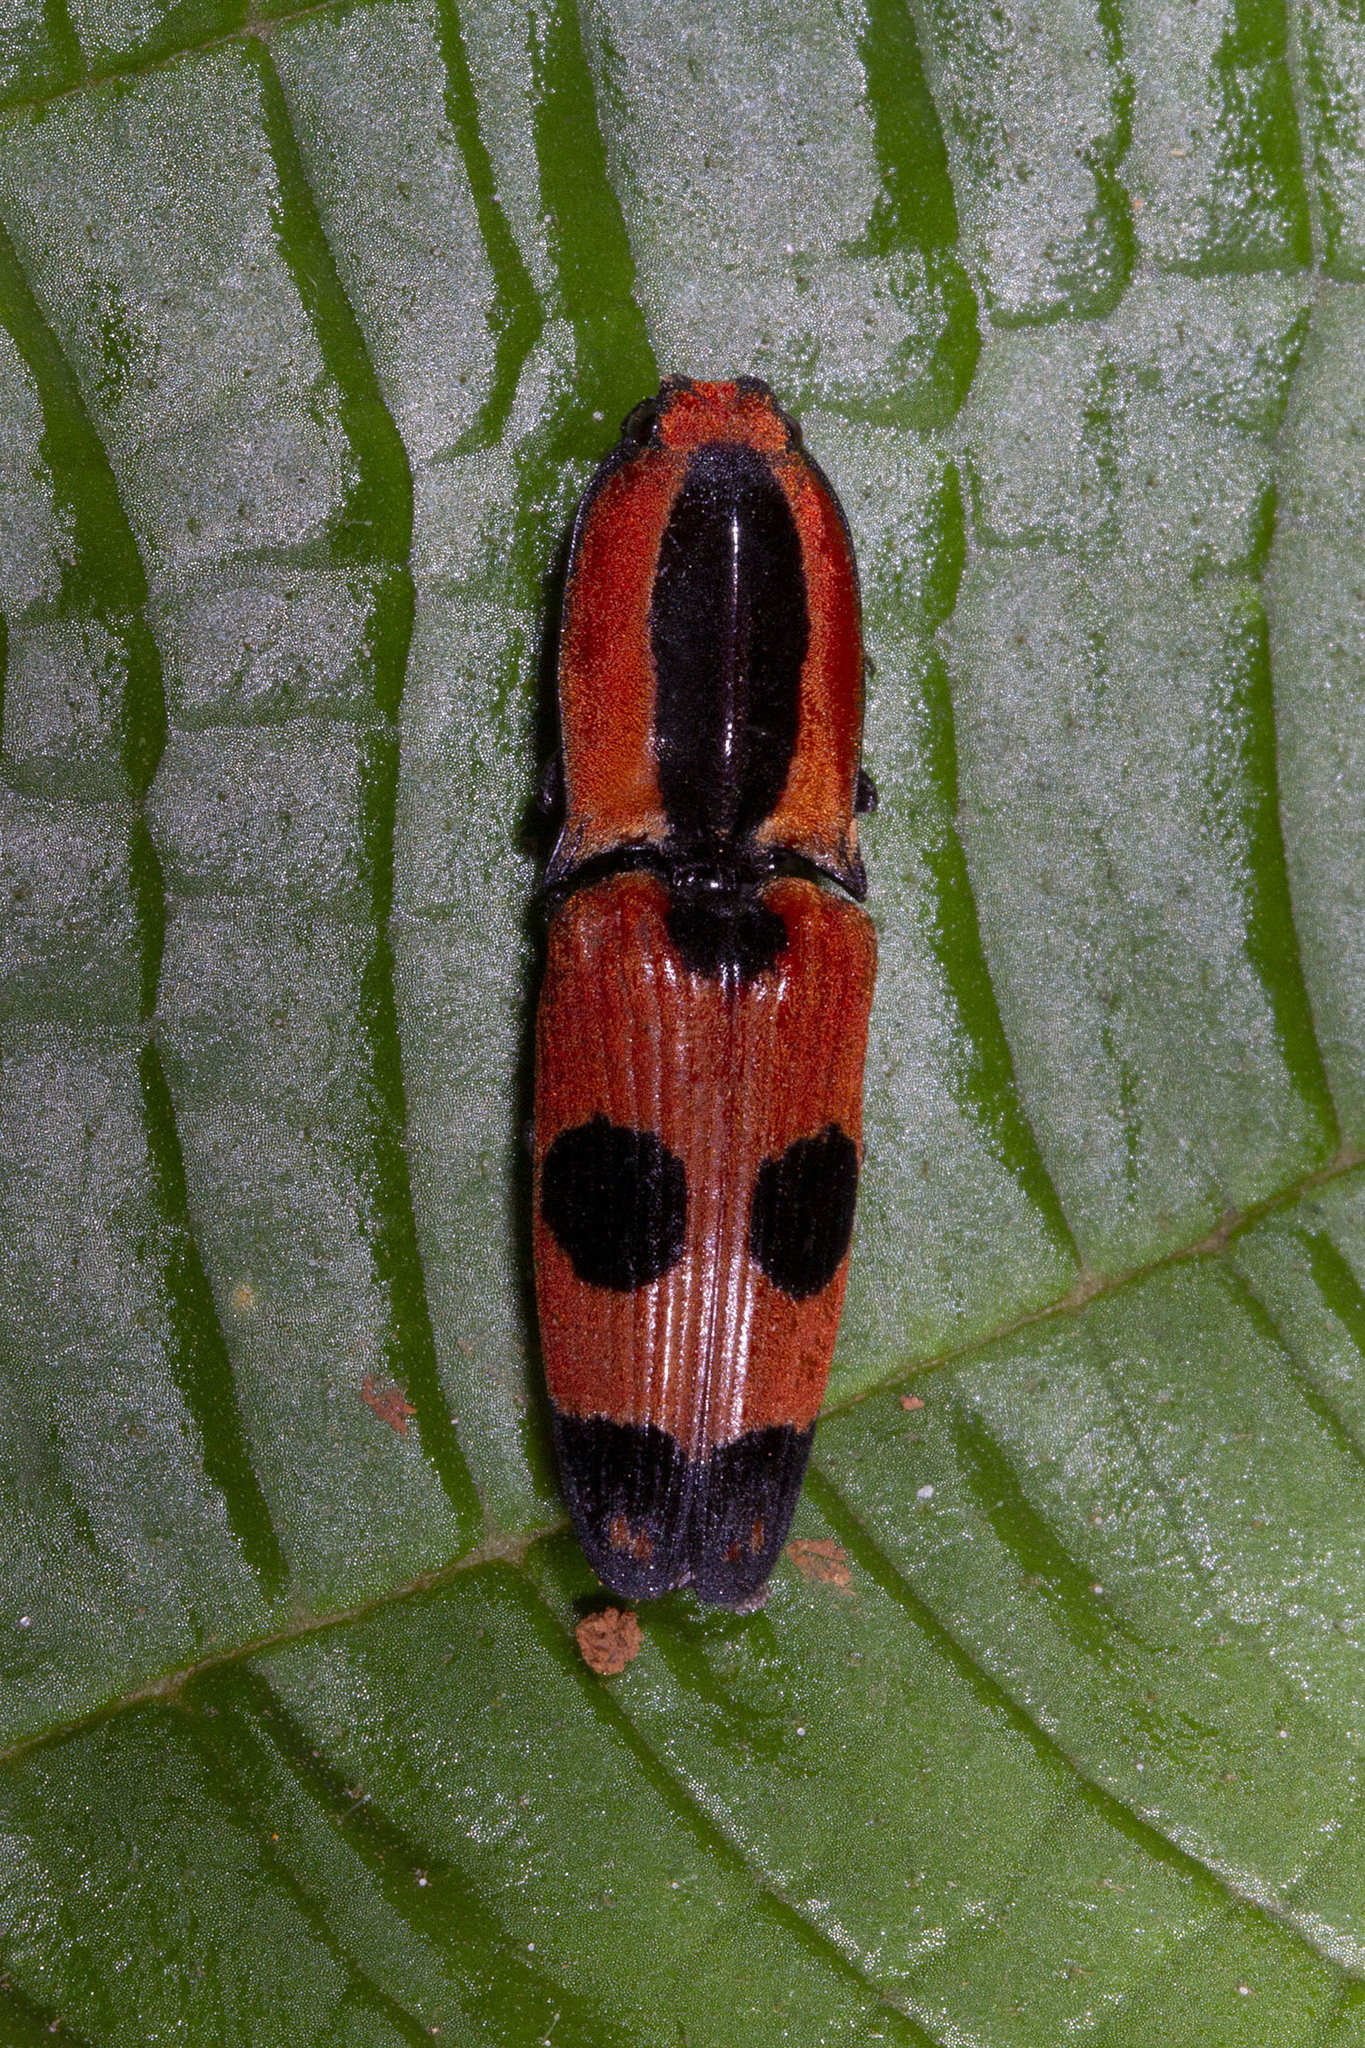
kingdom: Animalia
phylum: Arthropoda
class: Insecta
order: Coleoptera
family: Elateridae
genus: Neoabiphis
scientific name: Neoabiphis
